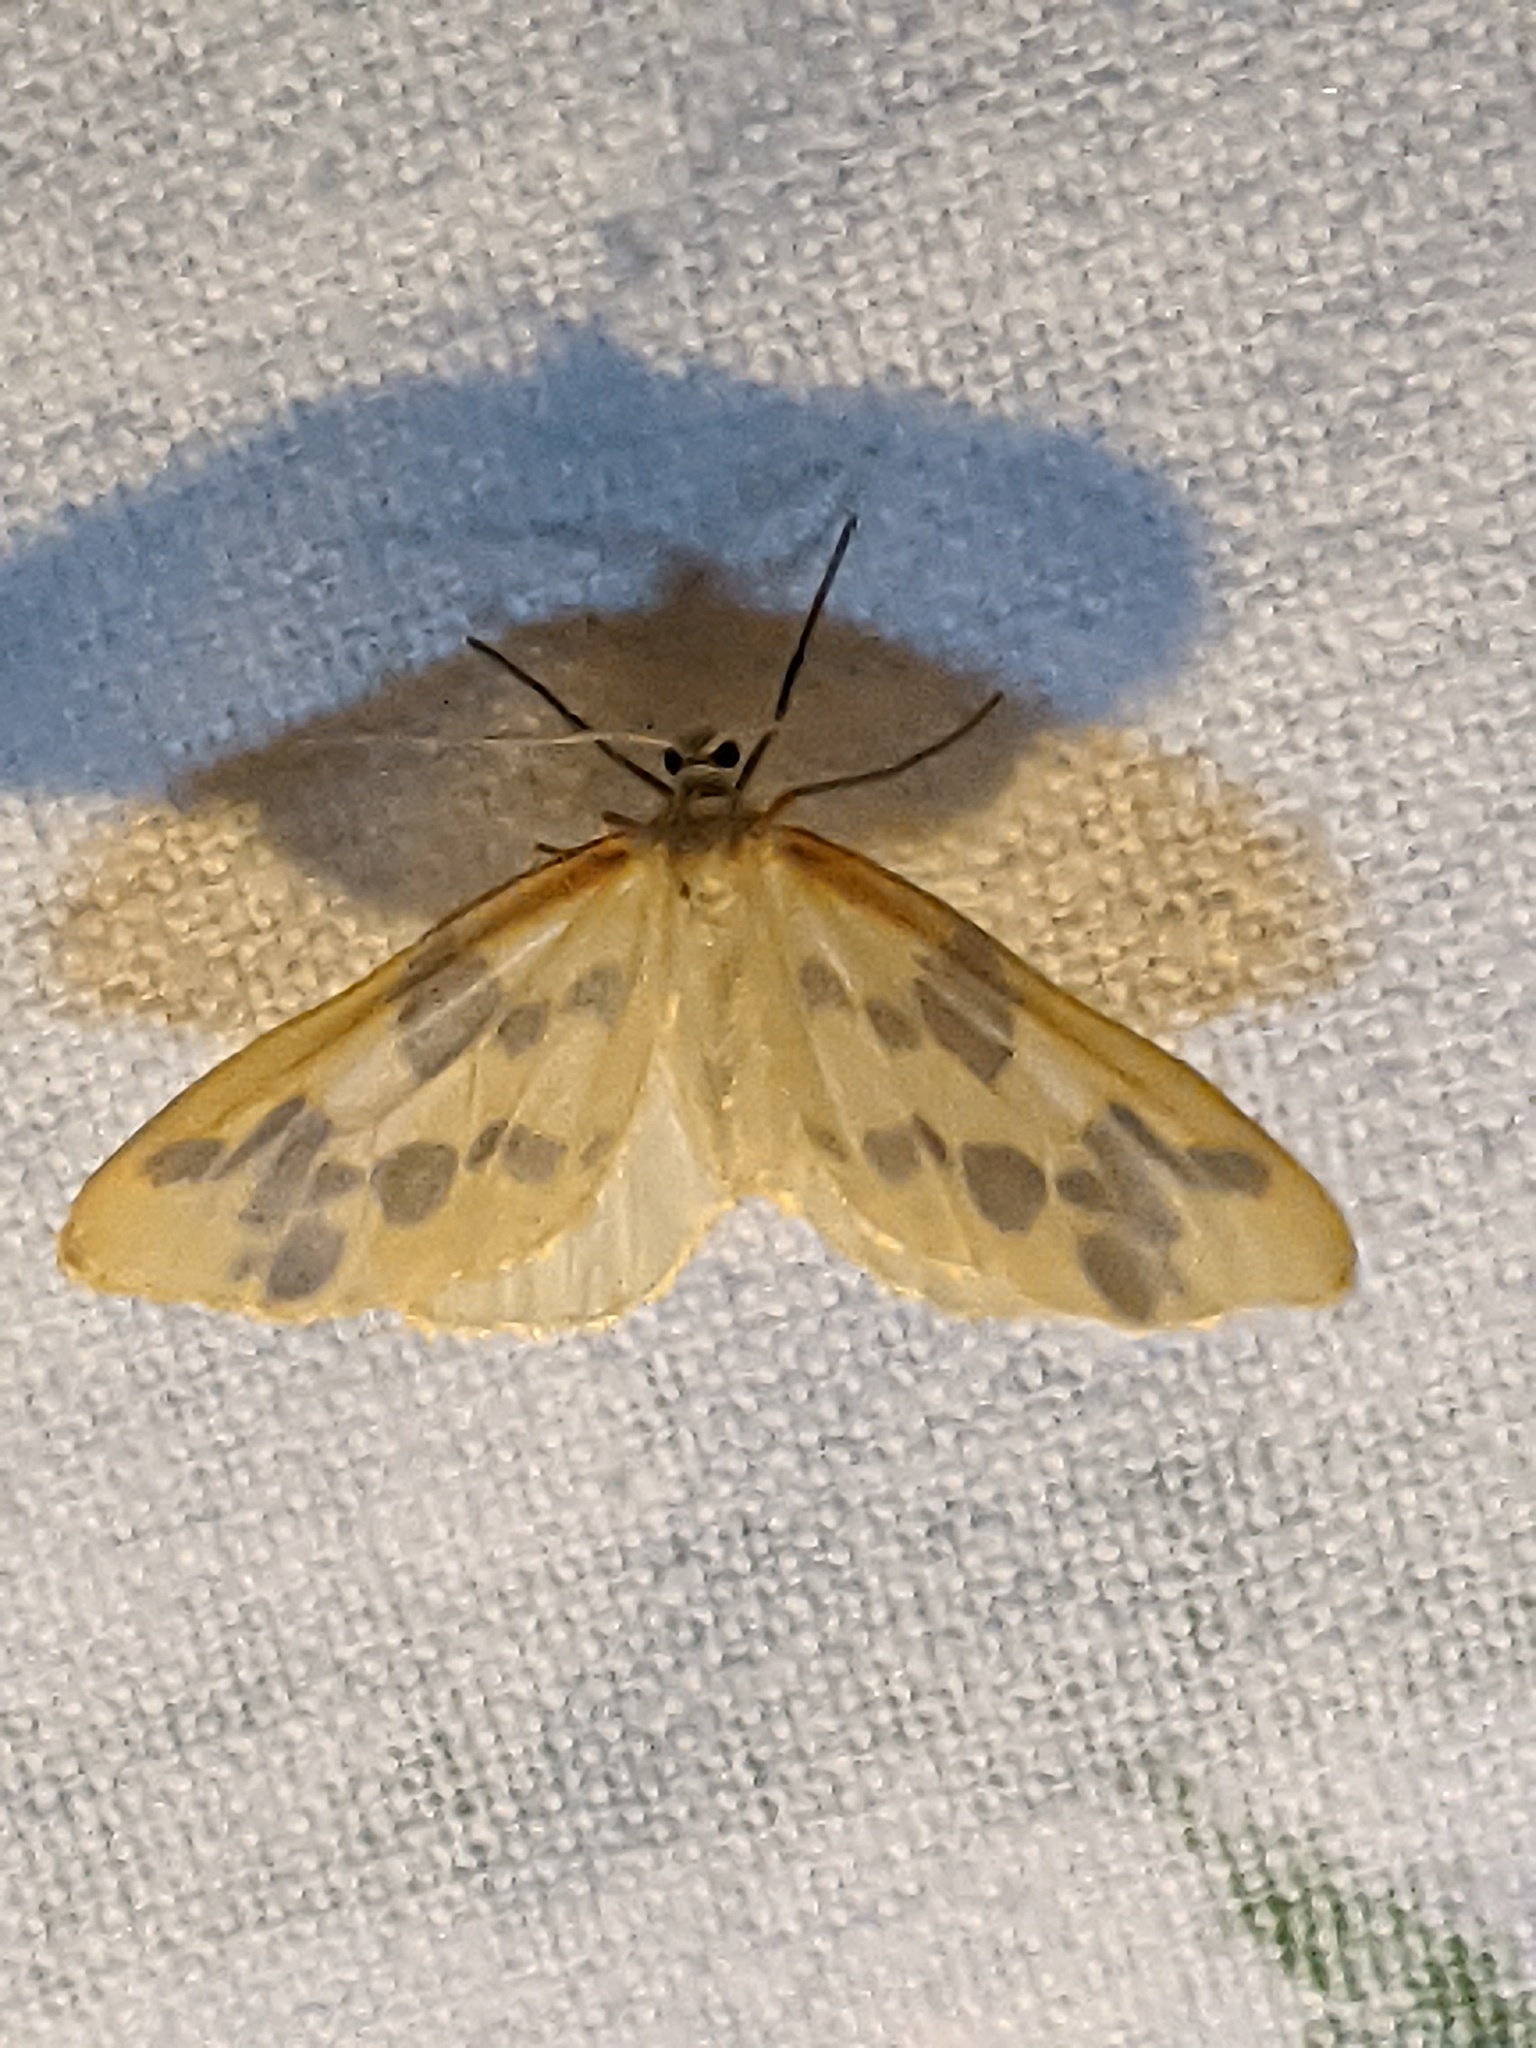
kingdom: Animalia
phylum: Arthropoda
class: Insecta
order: Lepidoptera
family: Geometridae
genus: Eubaphe
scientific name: Eubaphe mendica
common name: Beggar
